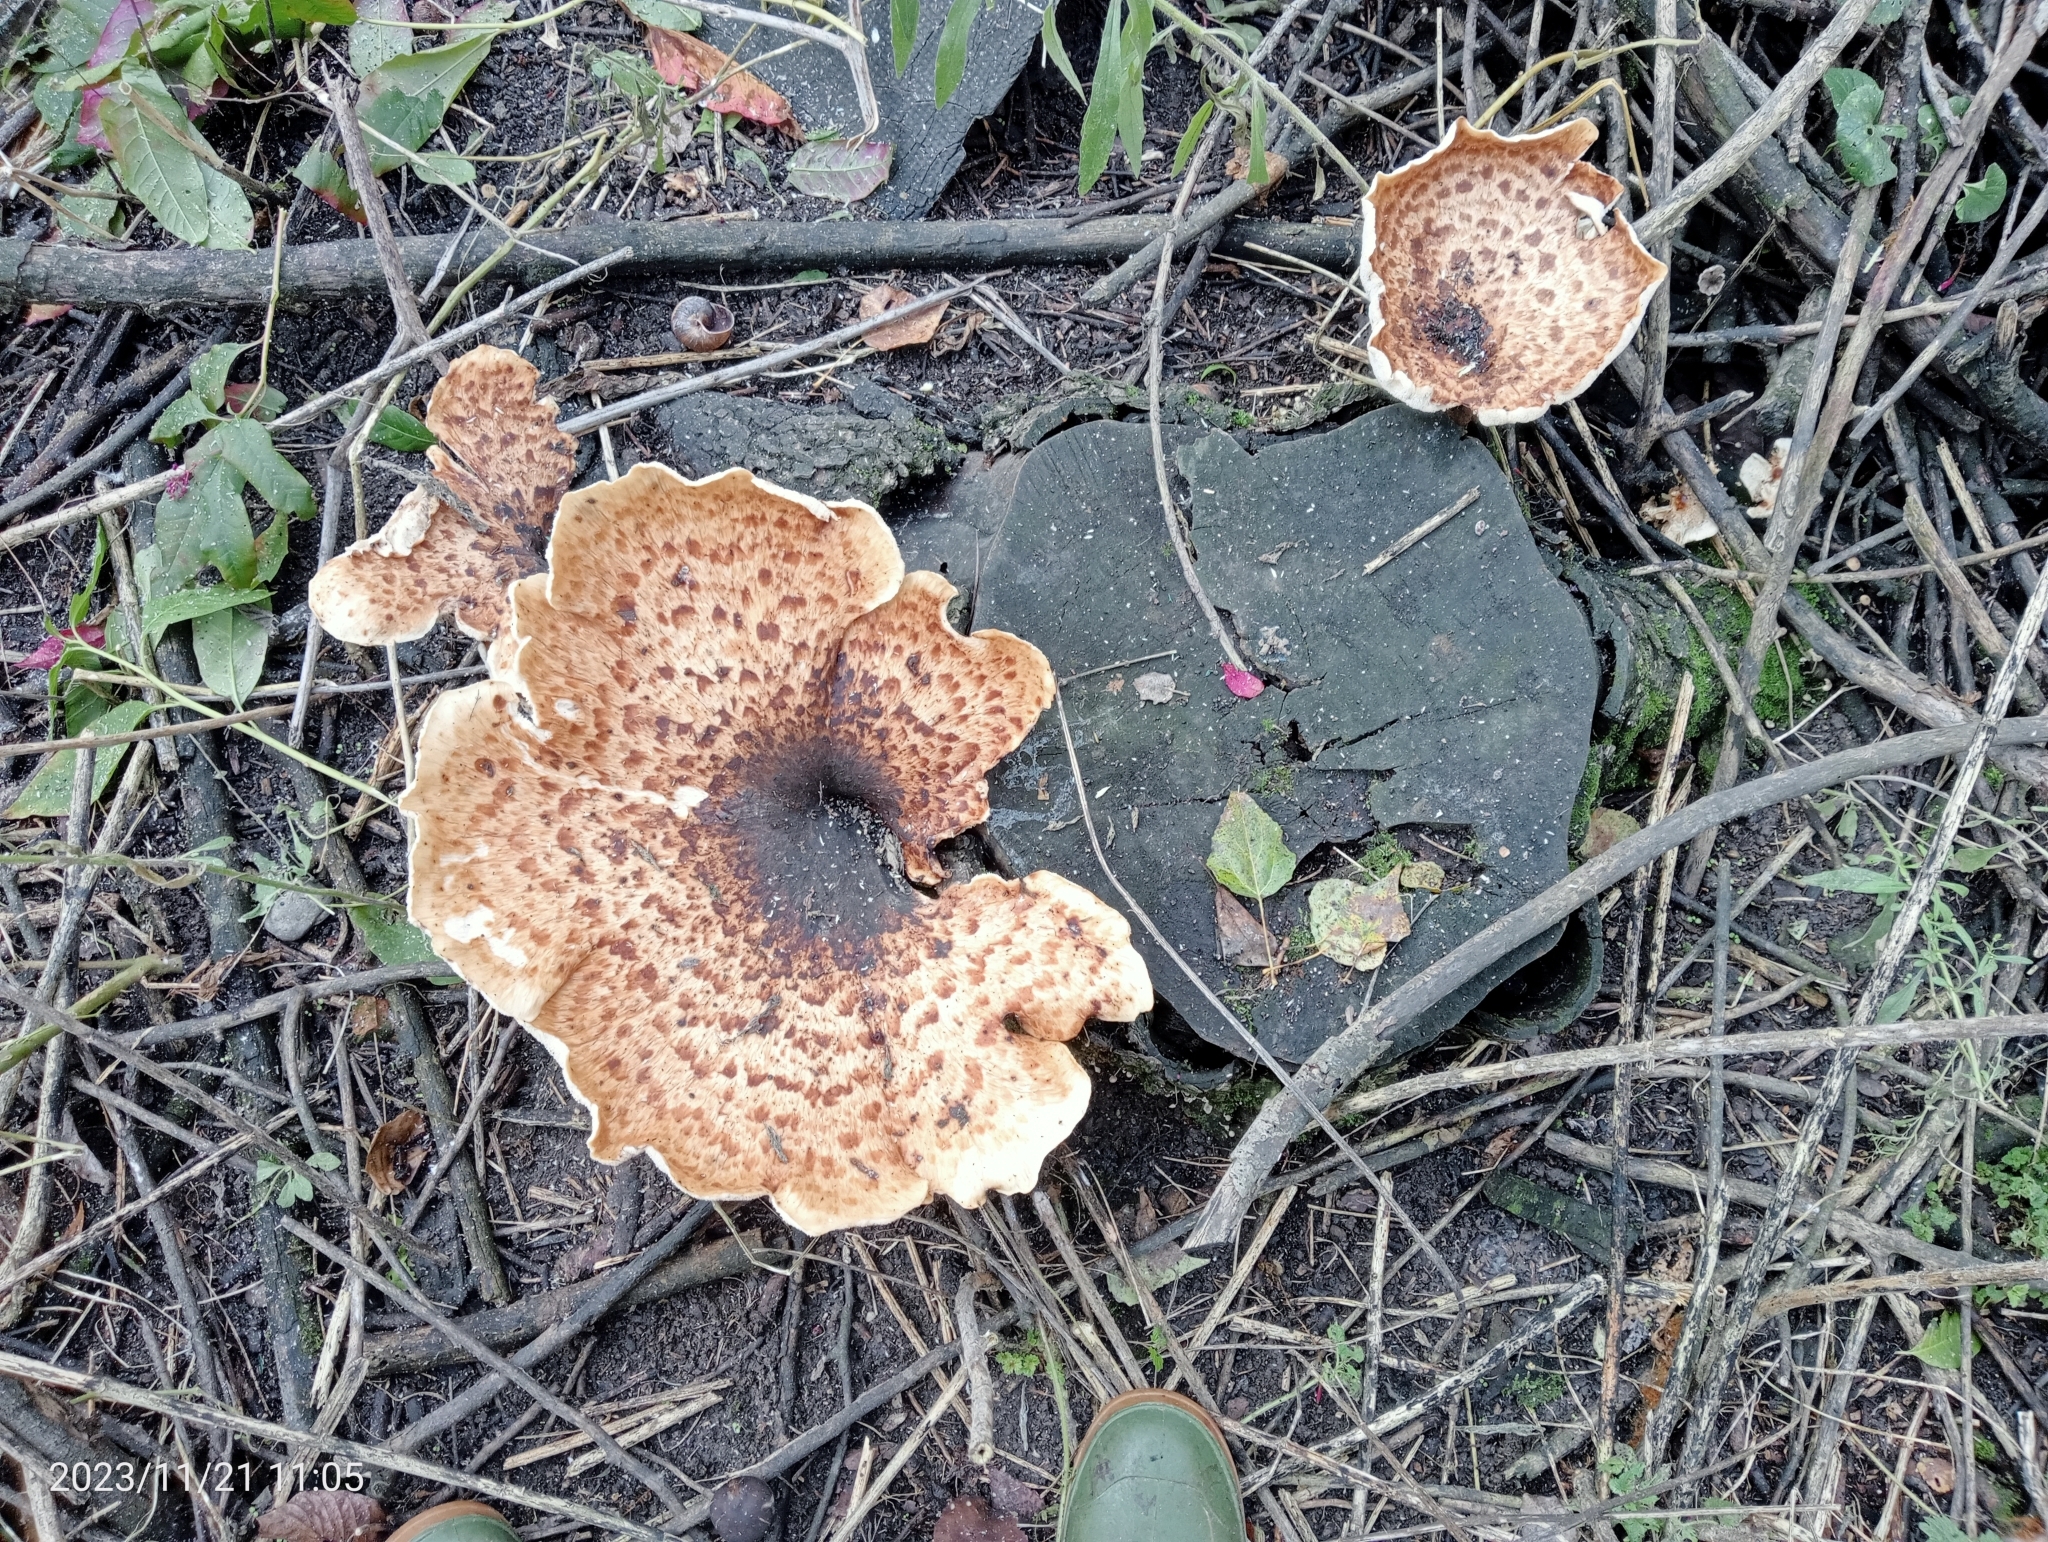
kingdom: Fungi
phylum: Basidiomycota
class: Agaricomycetes
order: Polyporales
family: Polyporaceae
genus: Cerioporus
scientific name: Cerioporus squamosus
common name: Dryad's saddle
